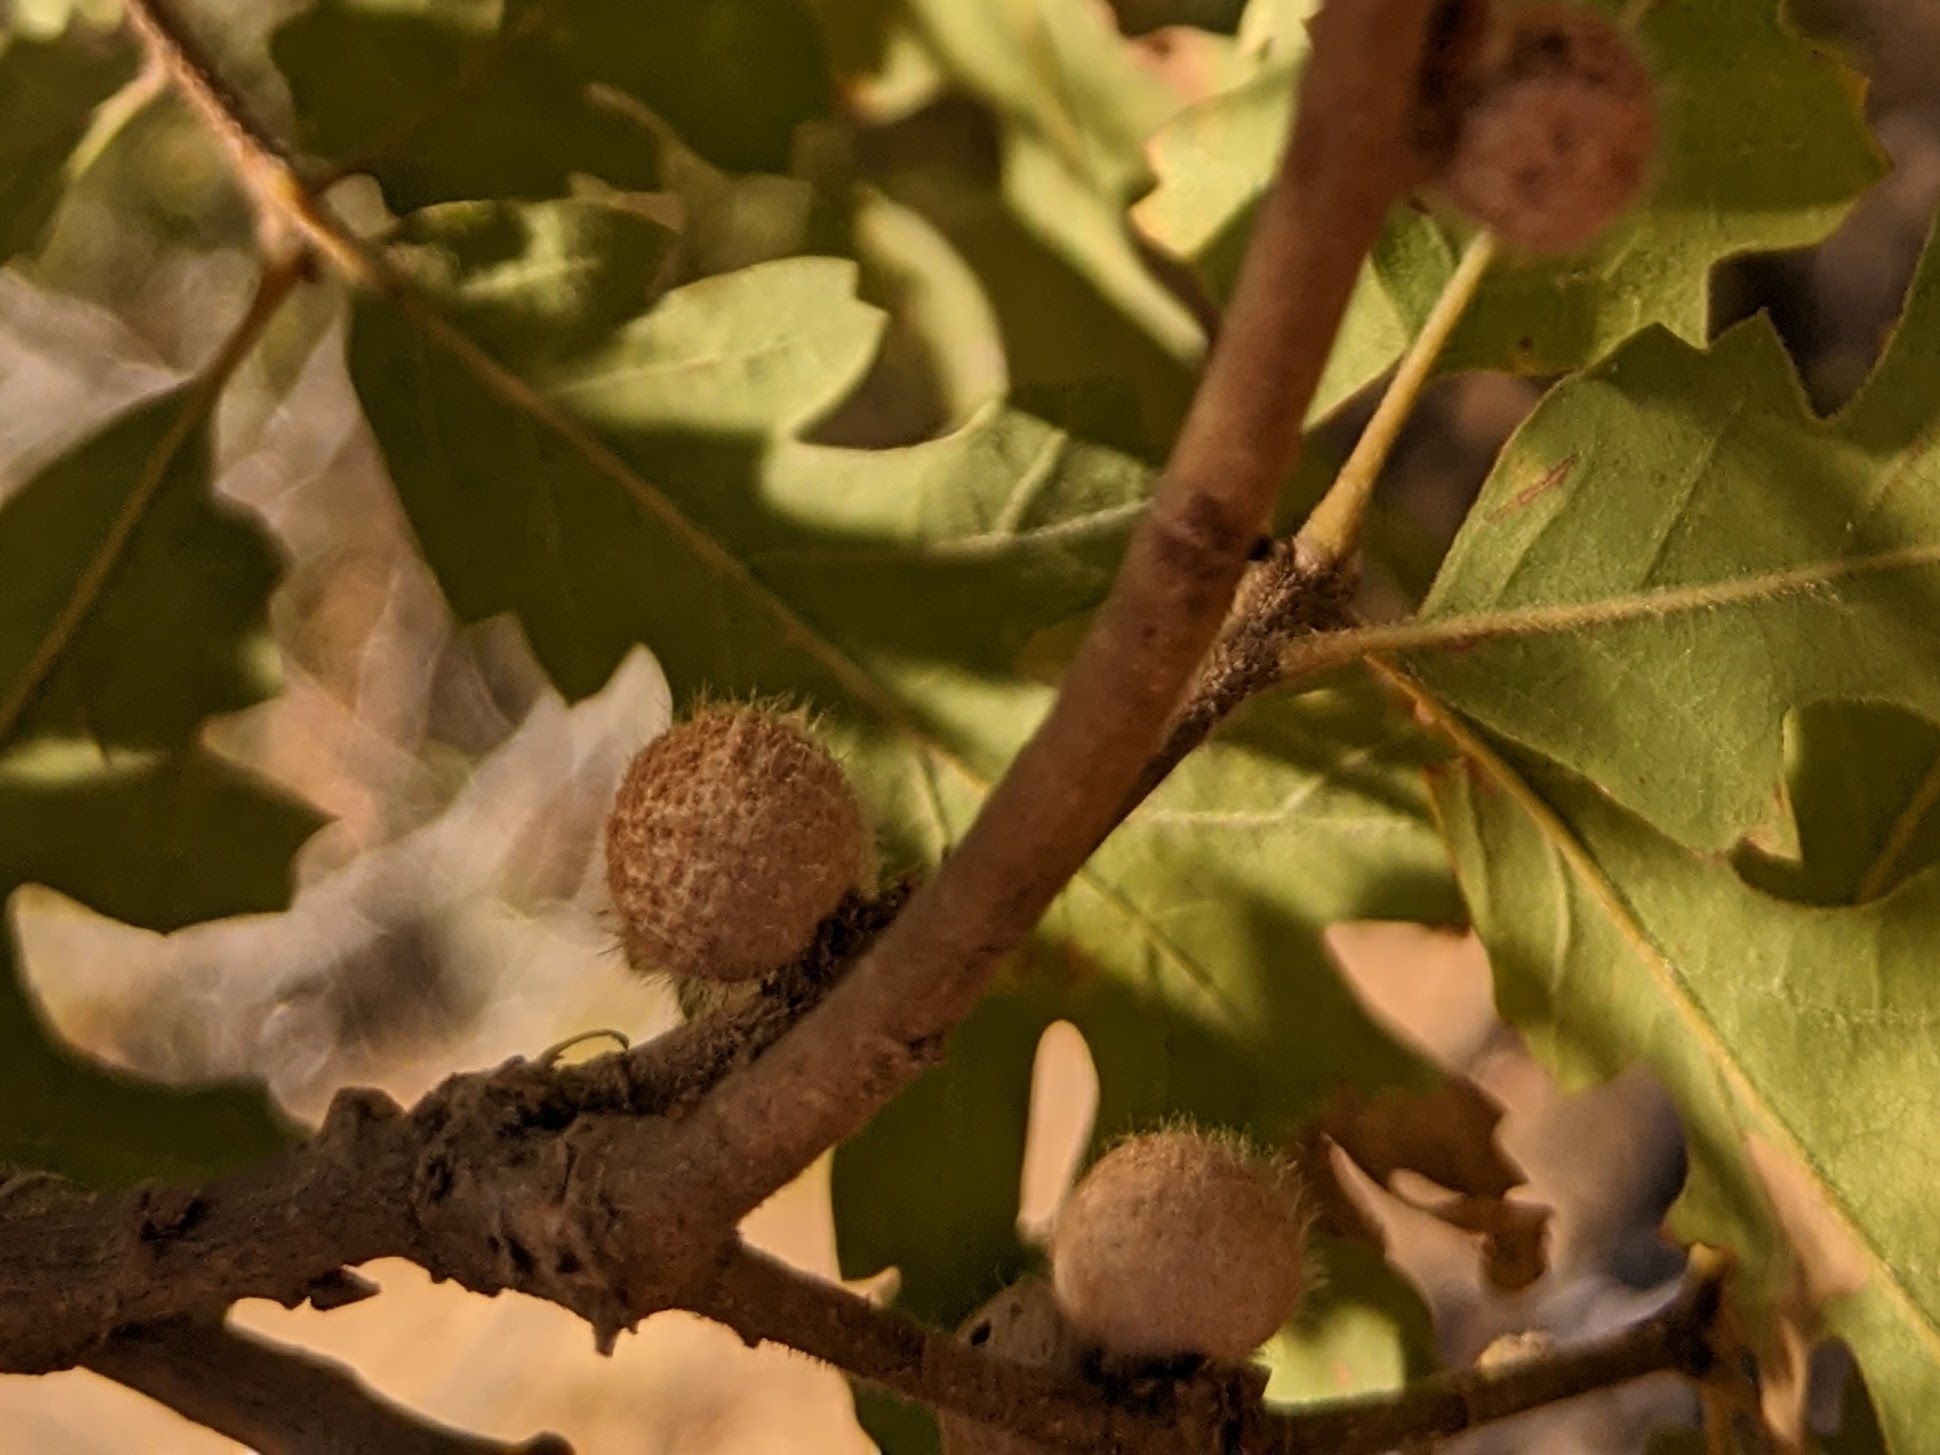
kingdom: Animalia
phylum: Arthropoda
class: Insecta
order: Hymenoptera
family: Cynipidae
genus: Burnettweldia
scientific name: Burnettweldia
